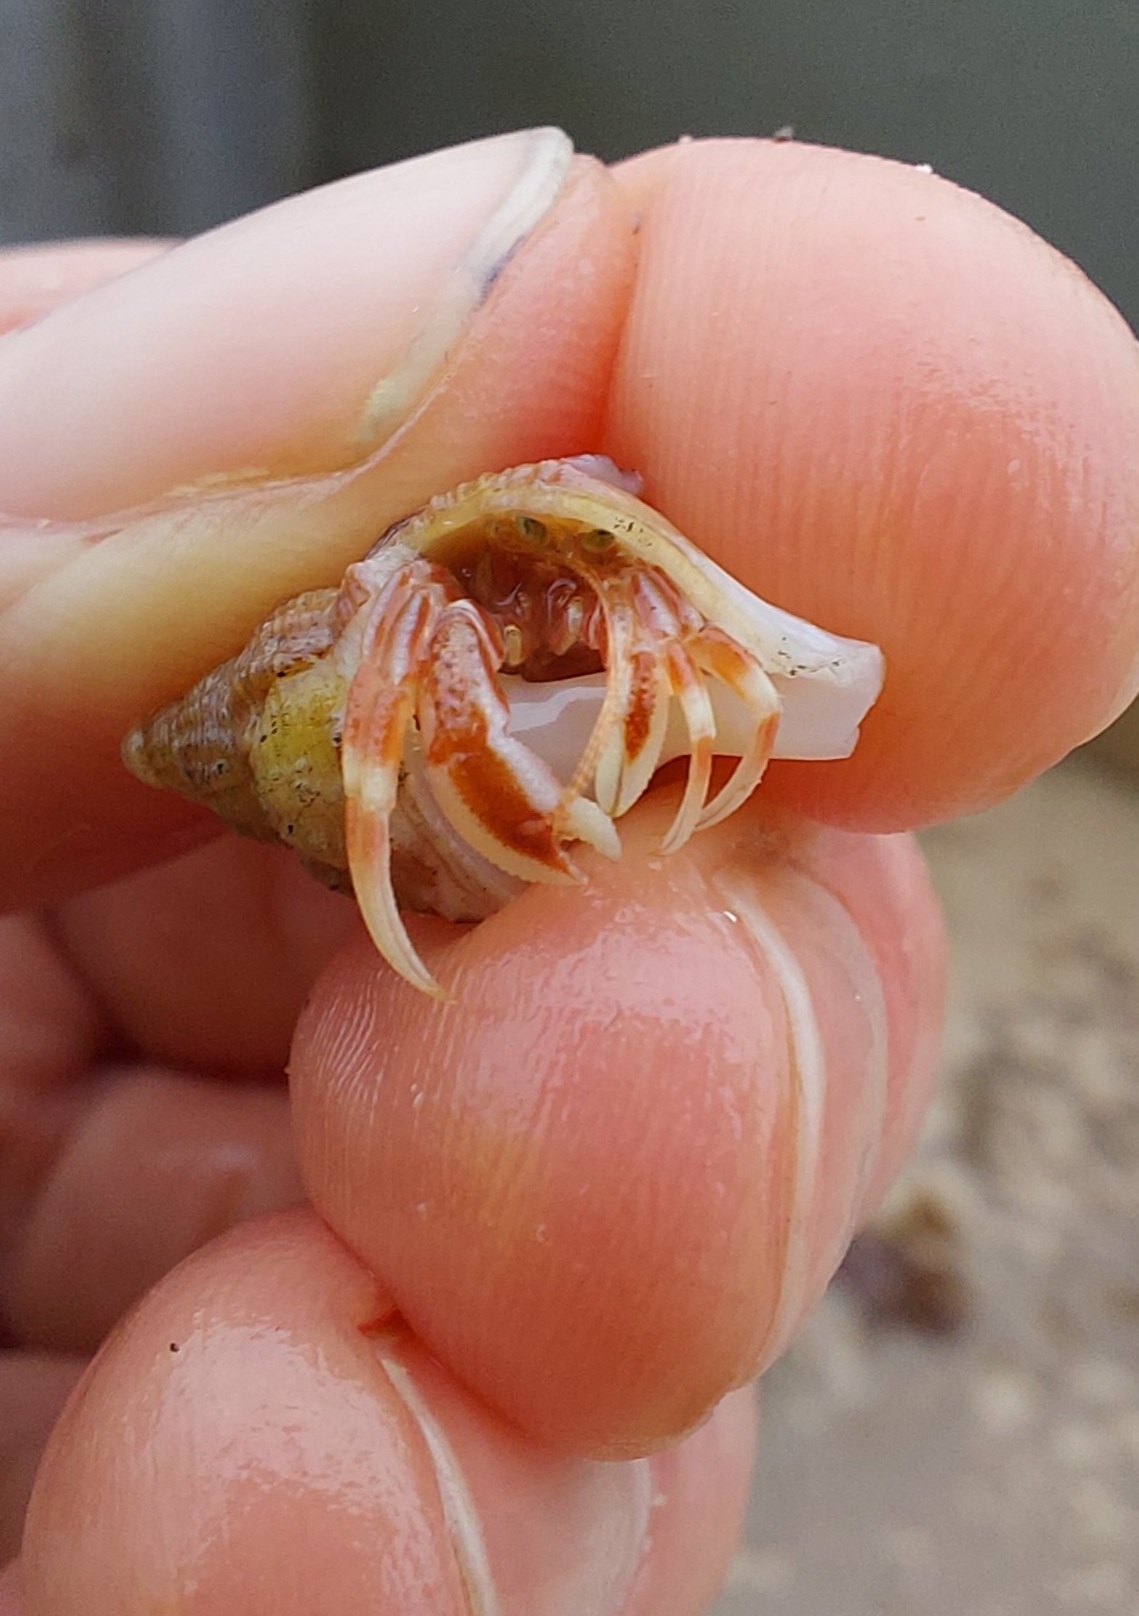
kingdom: Animalia
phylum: Arthropoda
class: Malacostraca
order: Decapoda
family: Paguridae
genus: Pagurus
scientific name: Pagurus acadianus
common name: Acadian hermit crab
